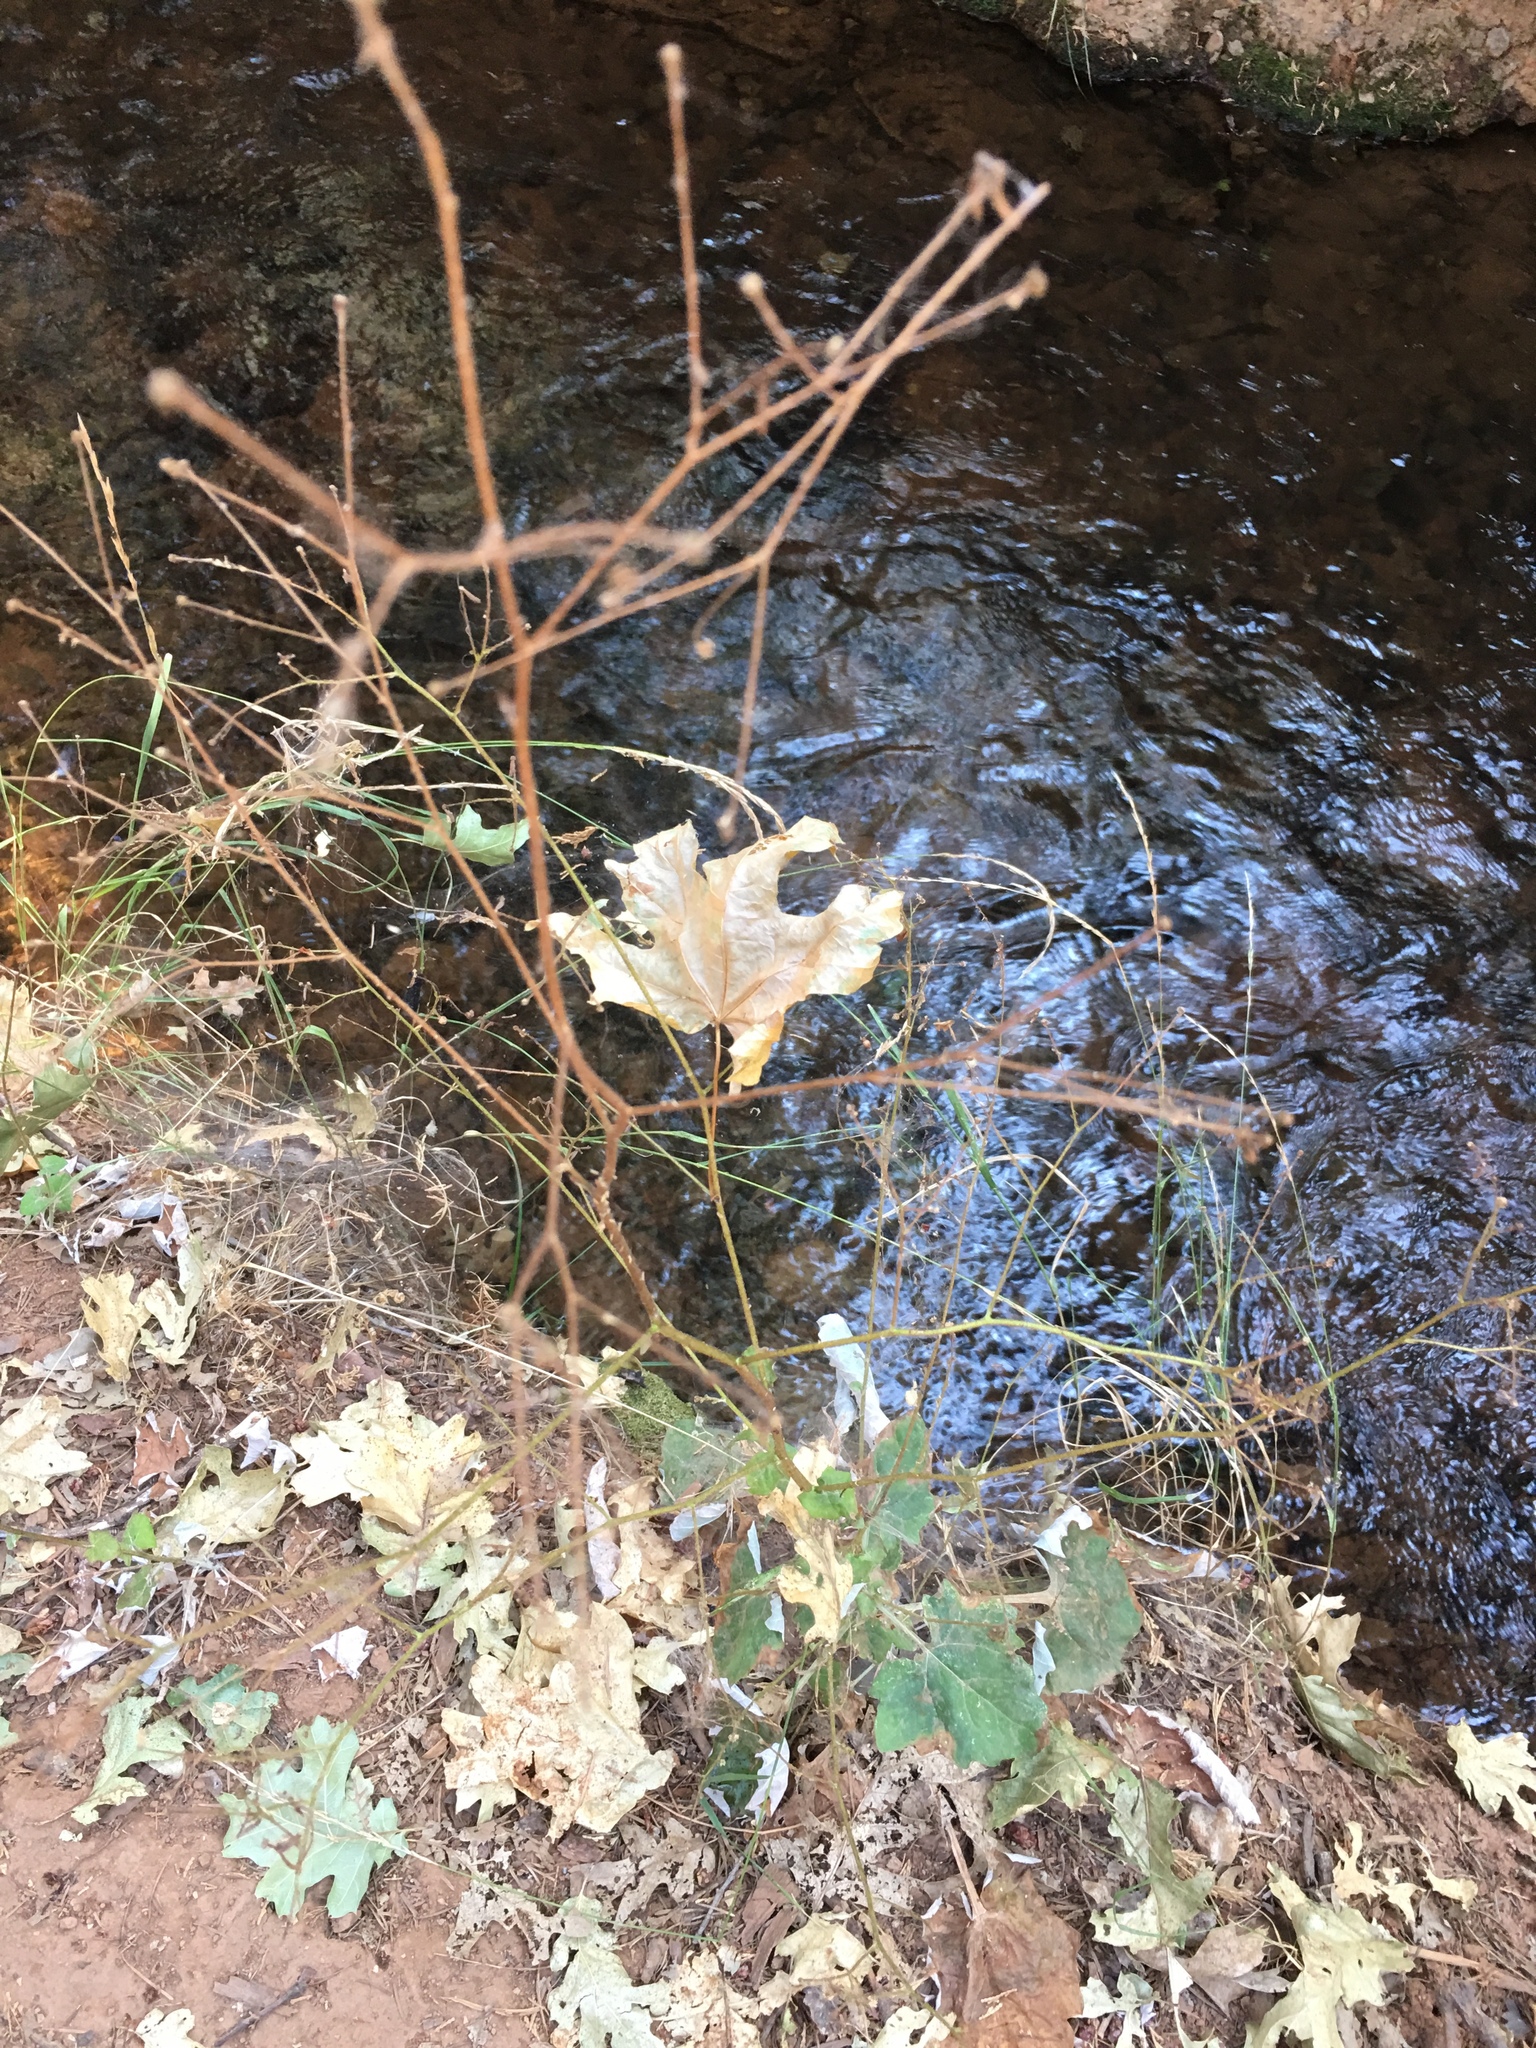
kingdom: Plantae
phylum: Tracheophyta
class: Magnoliopsida
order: Asterales
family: Asteraceae
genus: Adenocaulon
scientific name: Adenocaulon bicolor
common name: Trailplant
